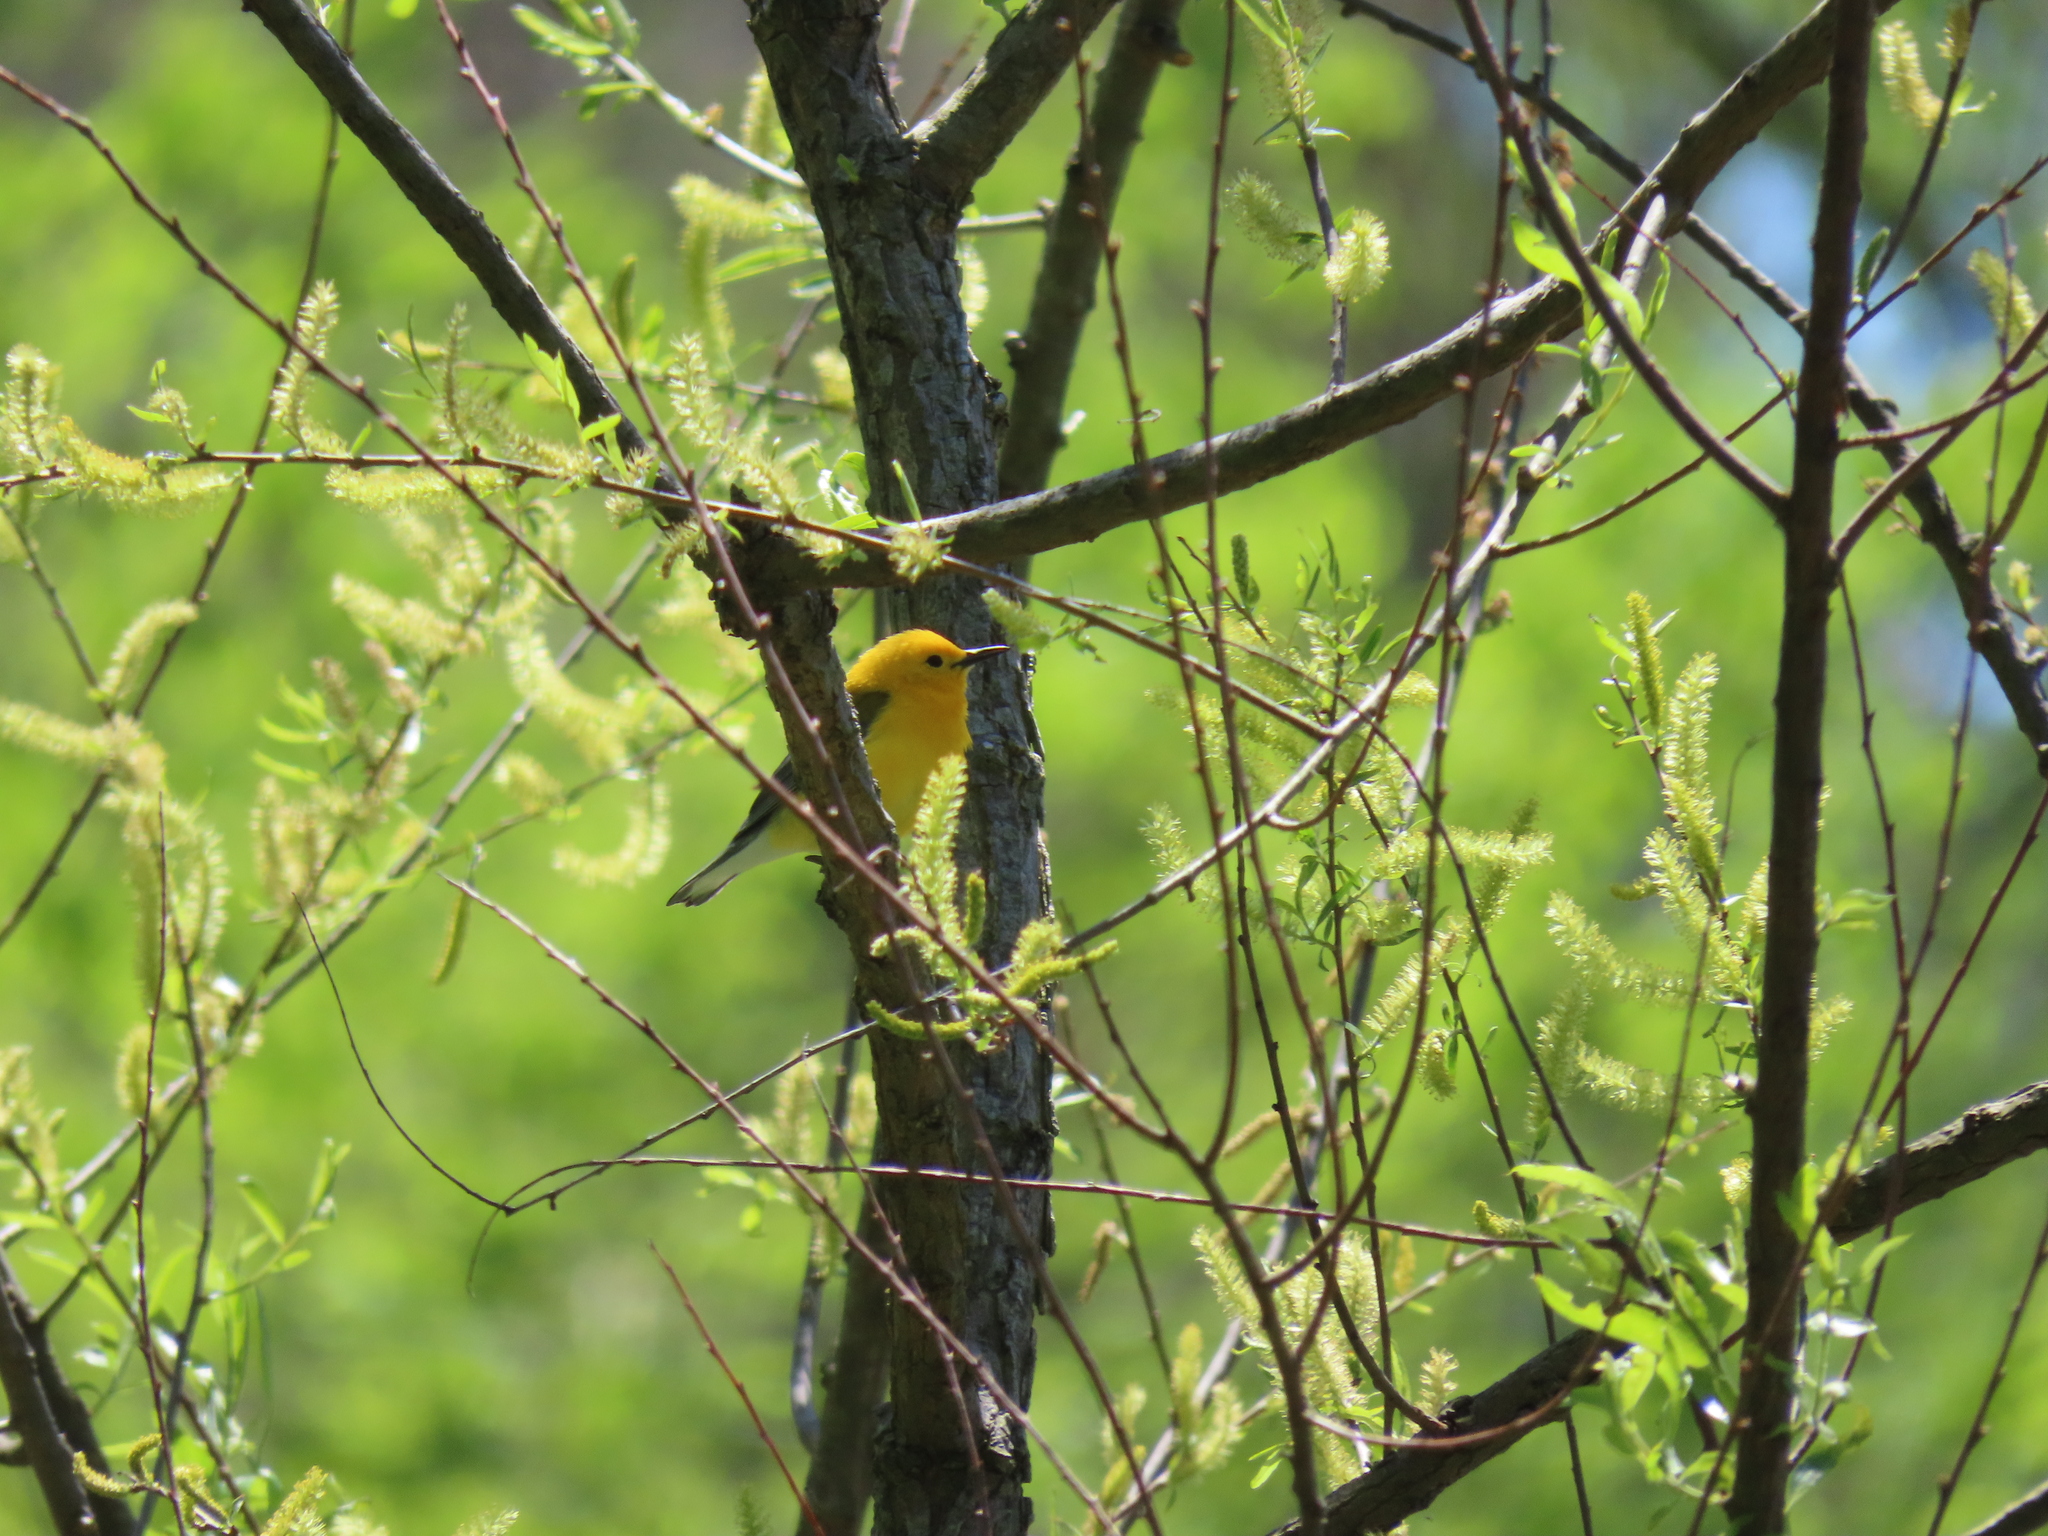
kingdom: Animalia
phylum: Chordata
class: Aves
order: Passeriformes
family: Parulidae
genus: Protonotaria
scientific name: Protonotaria citrea
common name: Prothonotary warbler
